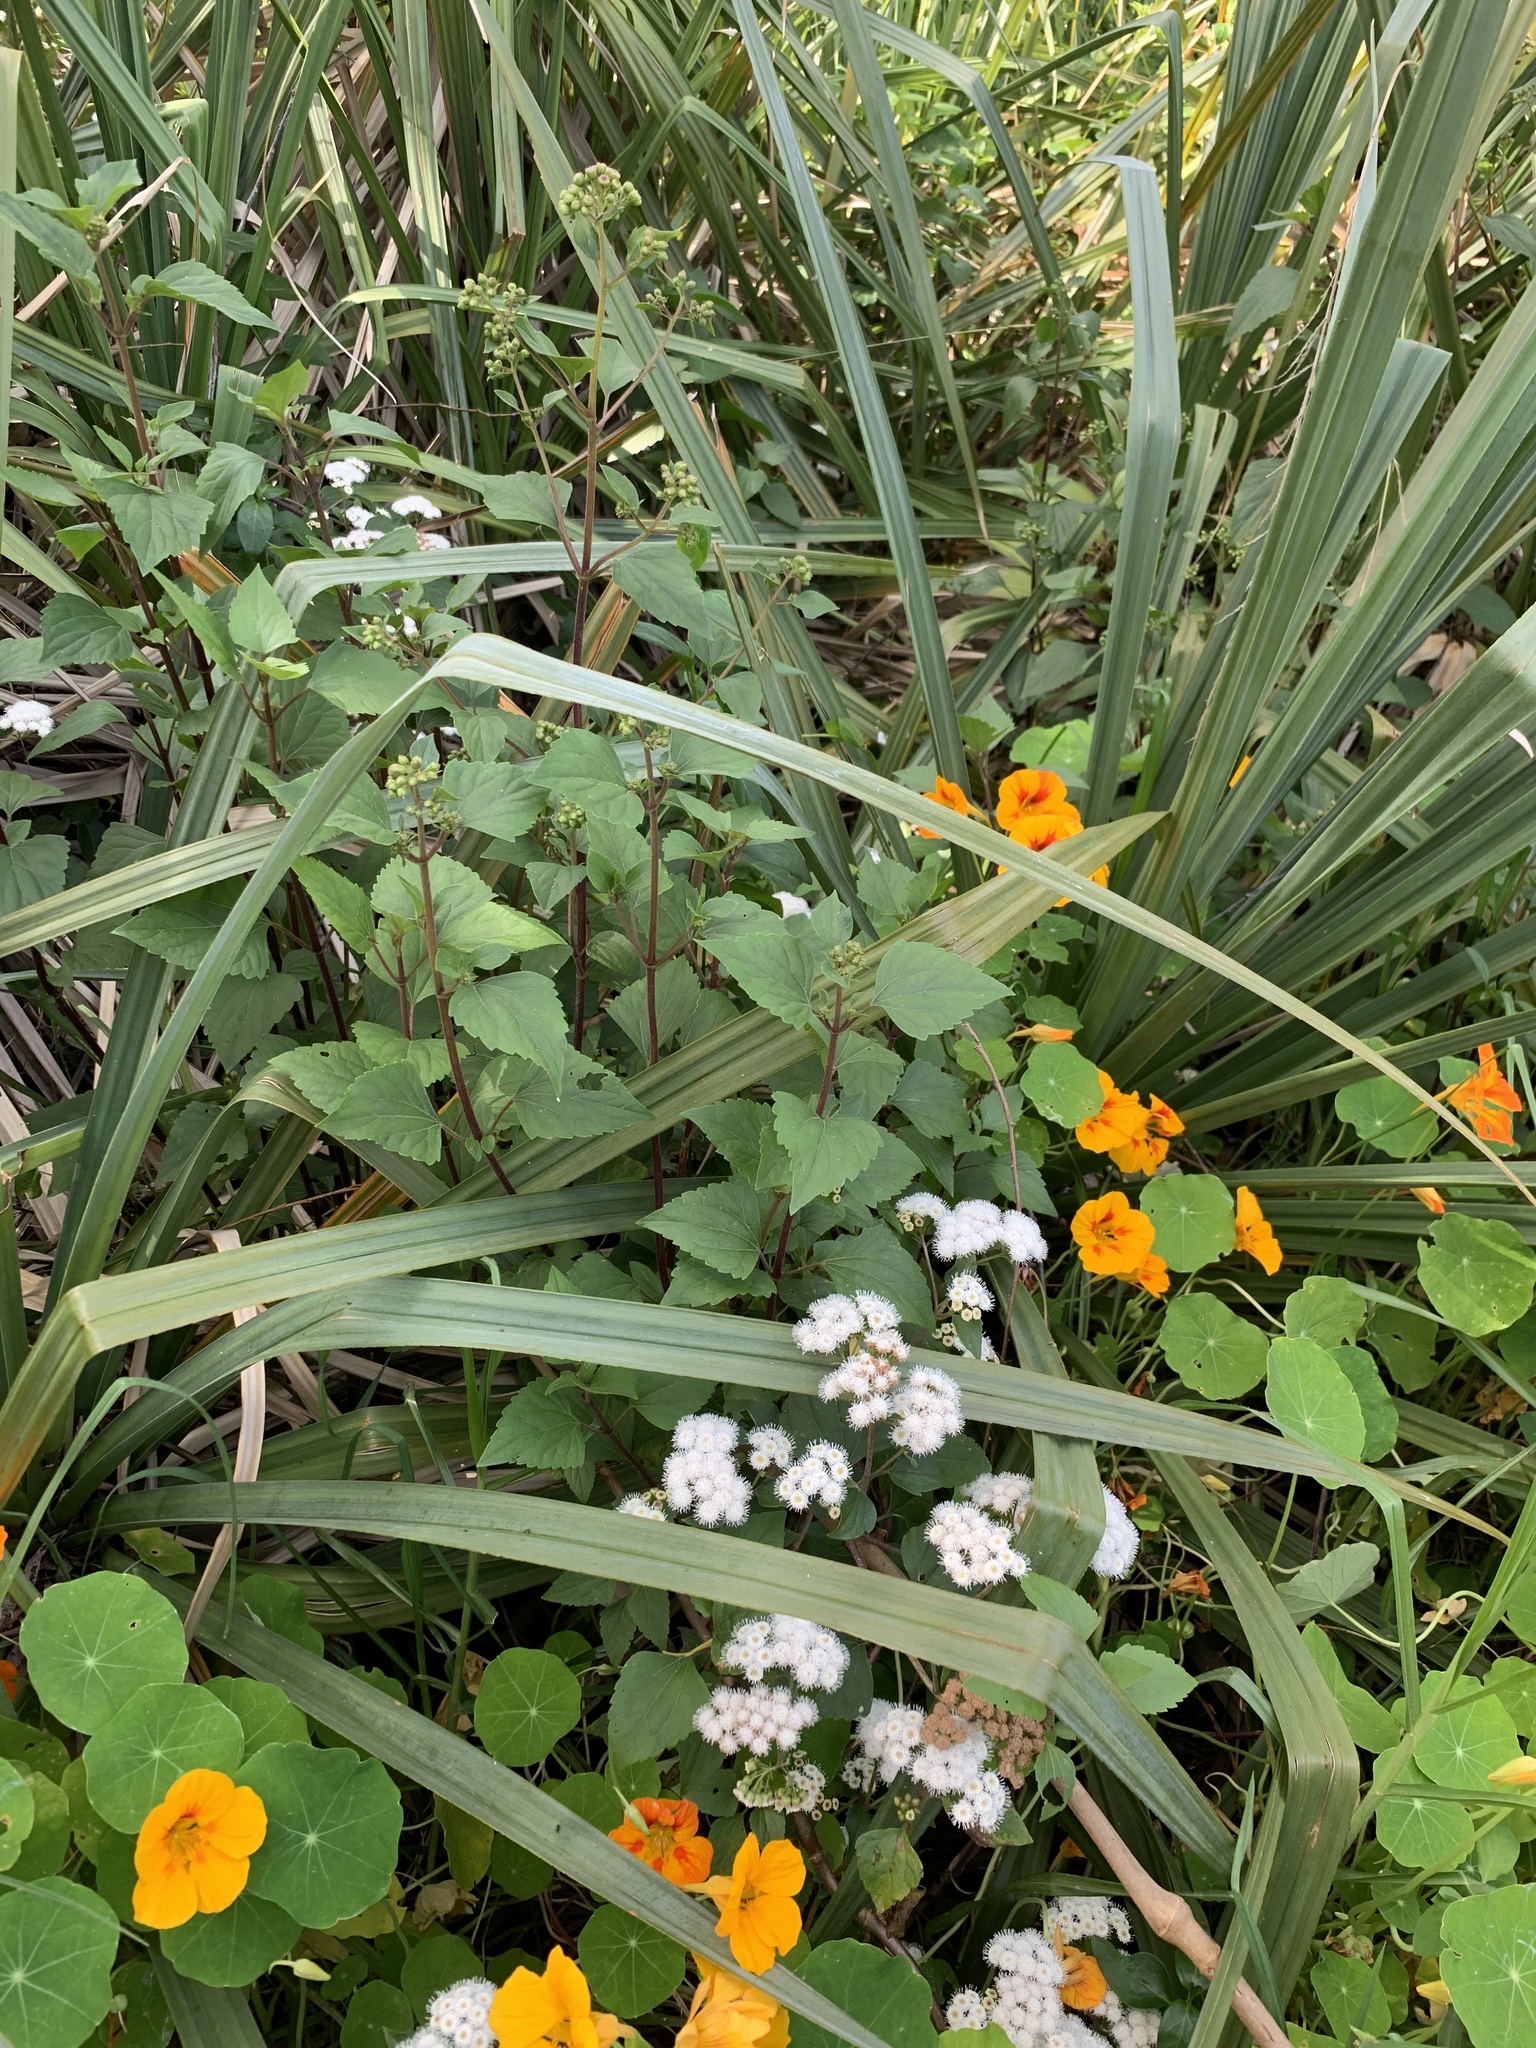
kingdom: Plantae
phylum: Tracheophyta
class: Magnoliopsida
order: Asterales
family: Asteraceae
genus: Ageratina
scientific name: Ageratina adenophora
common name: Sticky snakeroot
